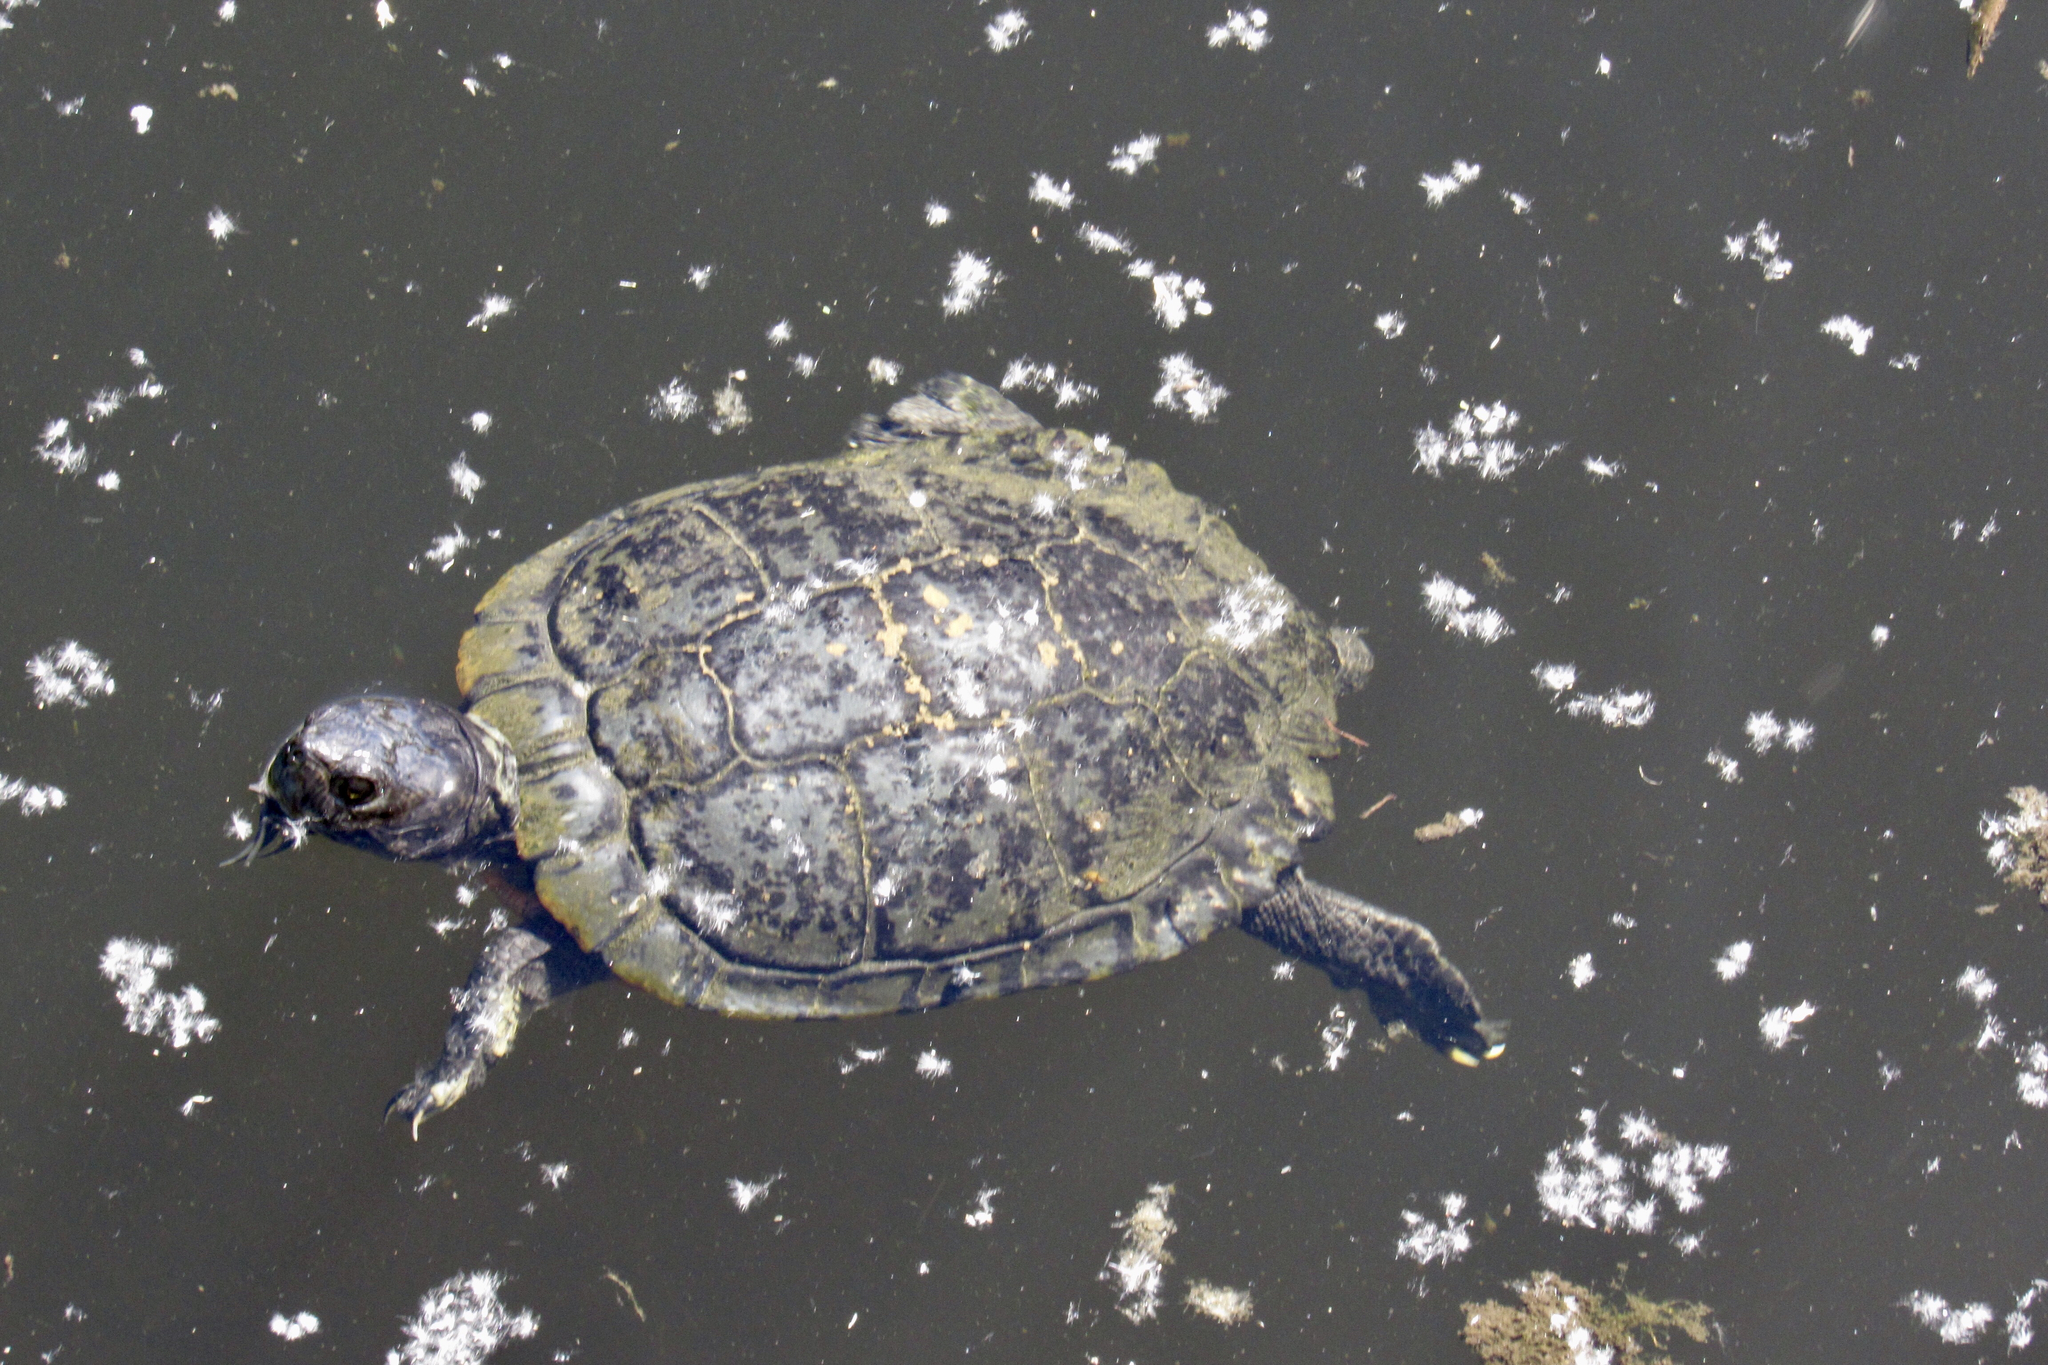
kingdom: Animalia
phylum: Chordata
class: Testudines
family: Emydidae
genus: Trachemys
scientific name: Trachemys scripta
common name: Slider
